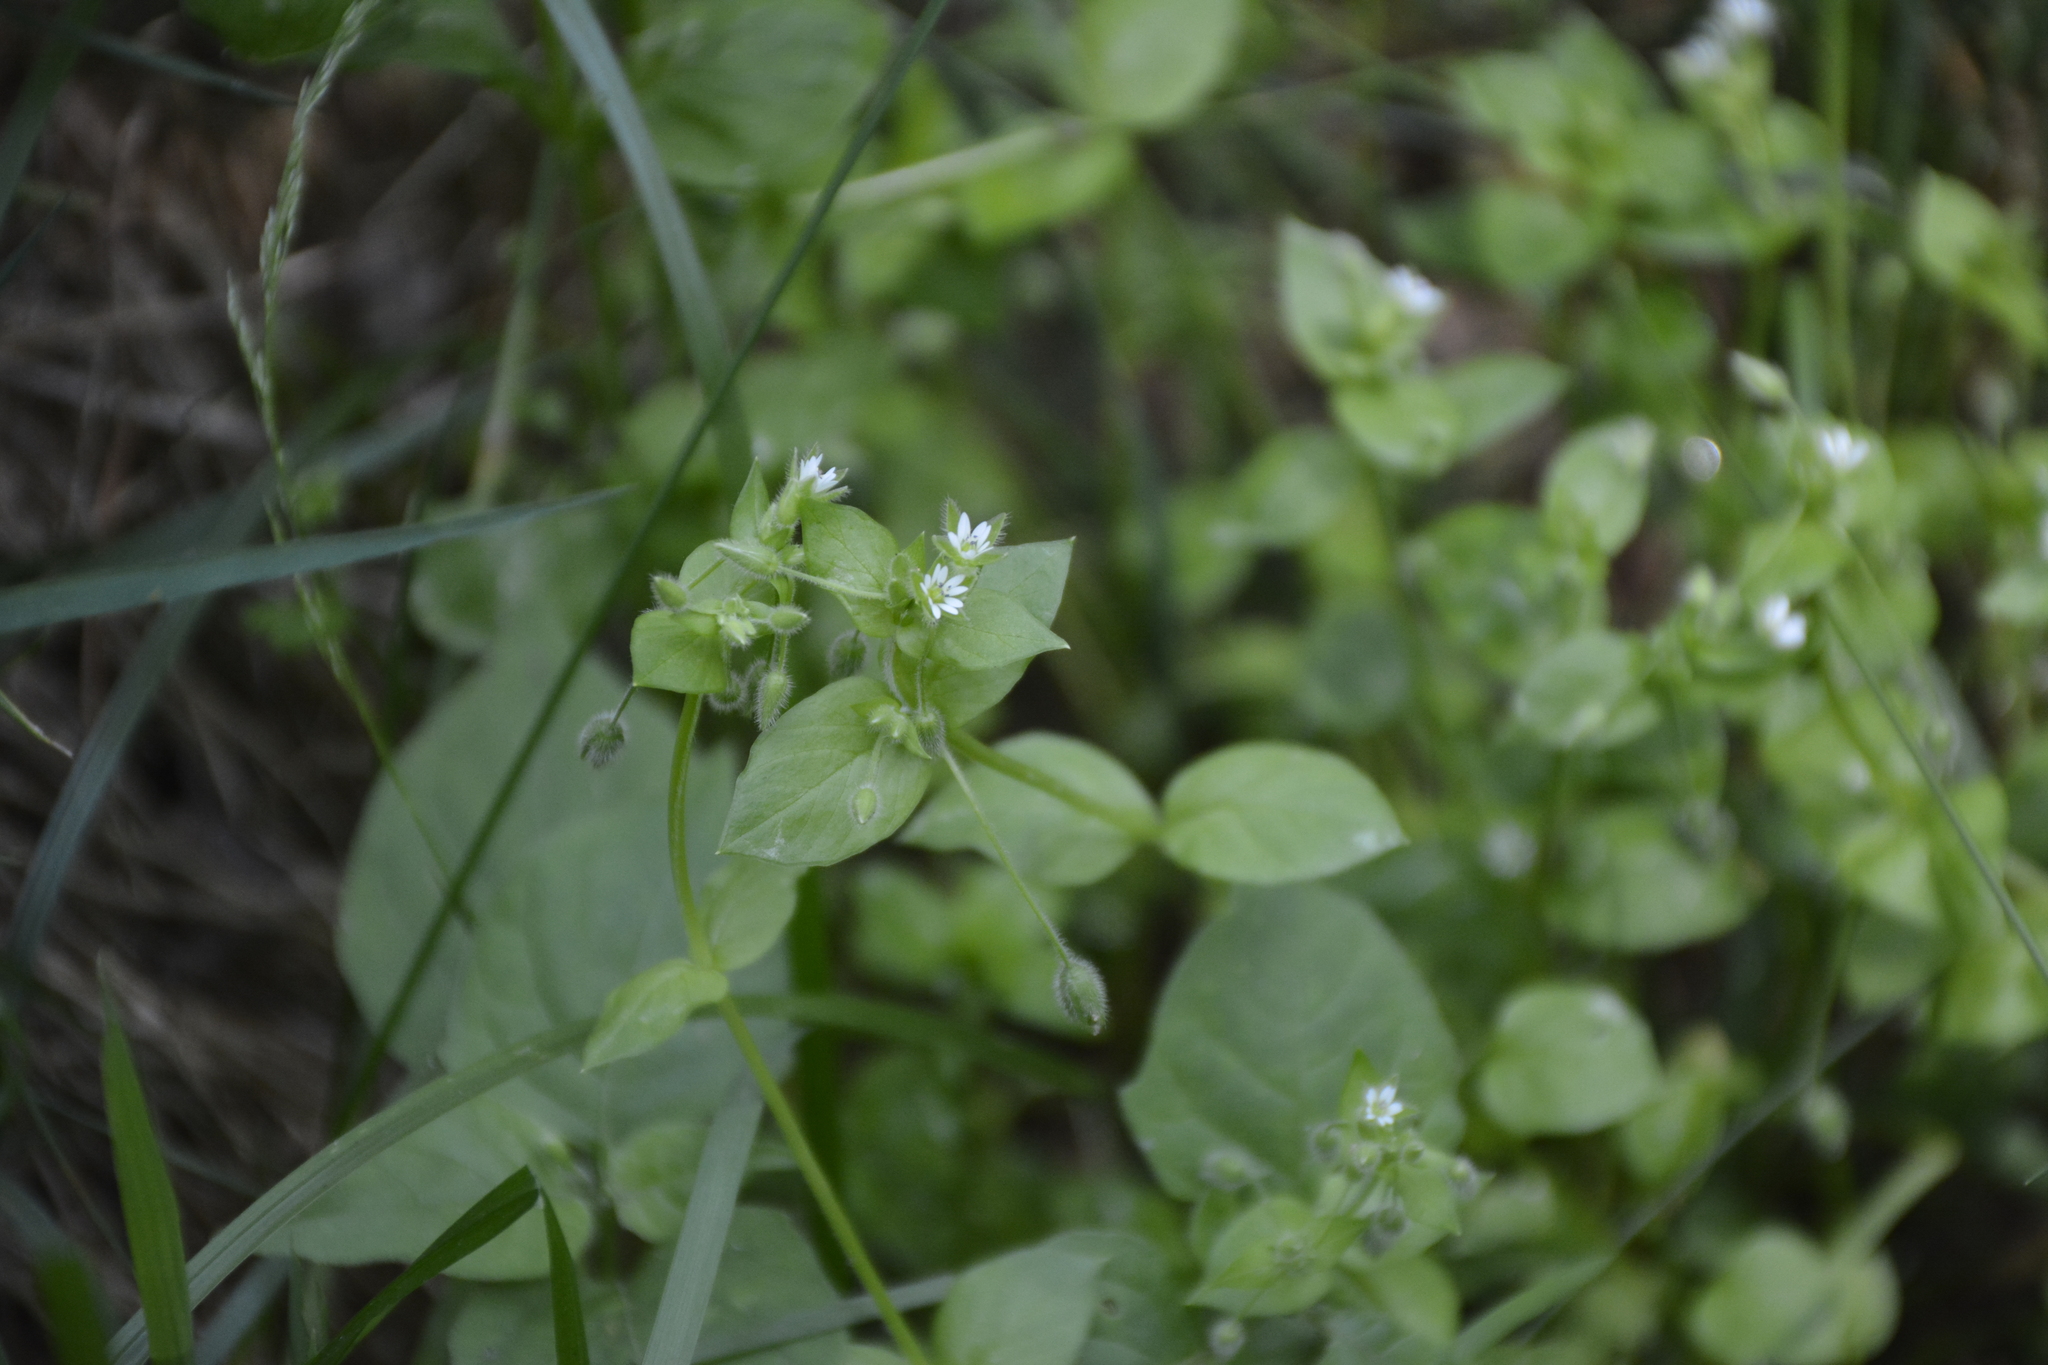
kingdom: Plantae
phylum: Tracheophyta
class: Magnoliopsida
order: Caryophyllales
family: Caryophyllaceae
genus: Stellaria
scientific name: Stellaria media
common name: Common chickweed
